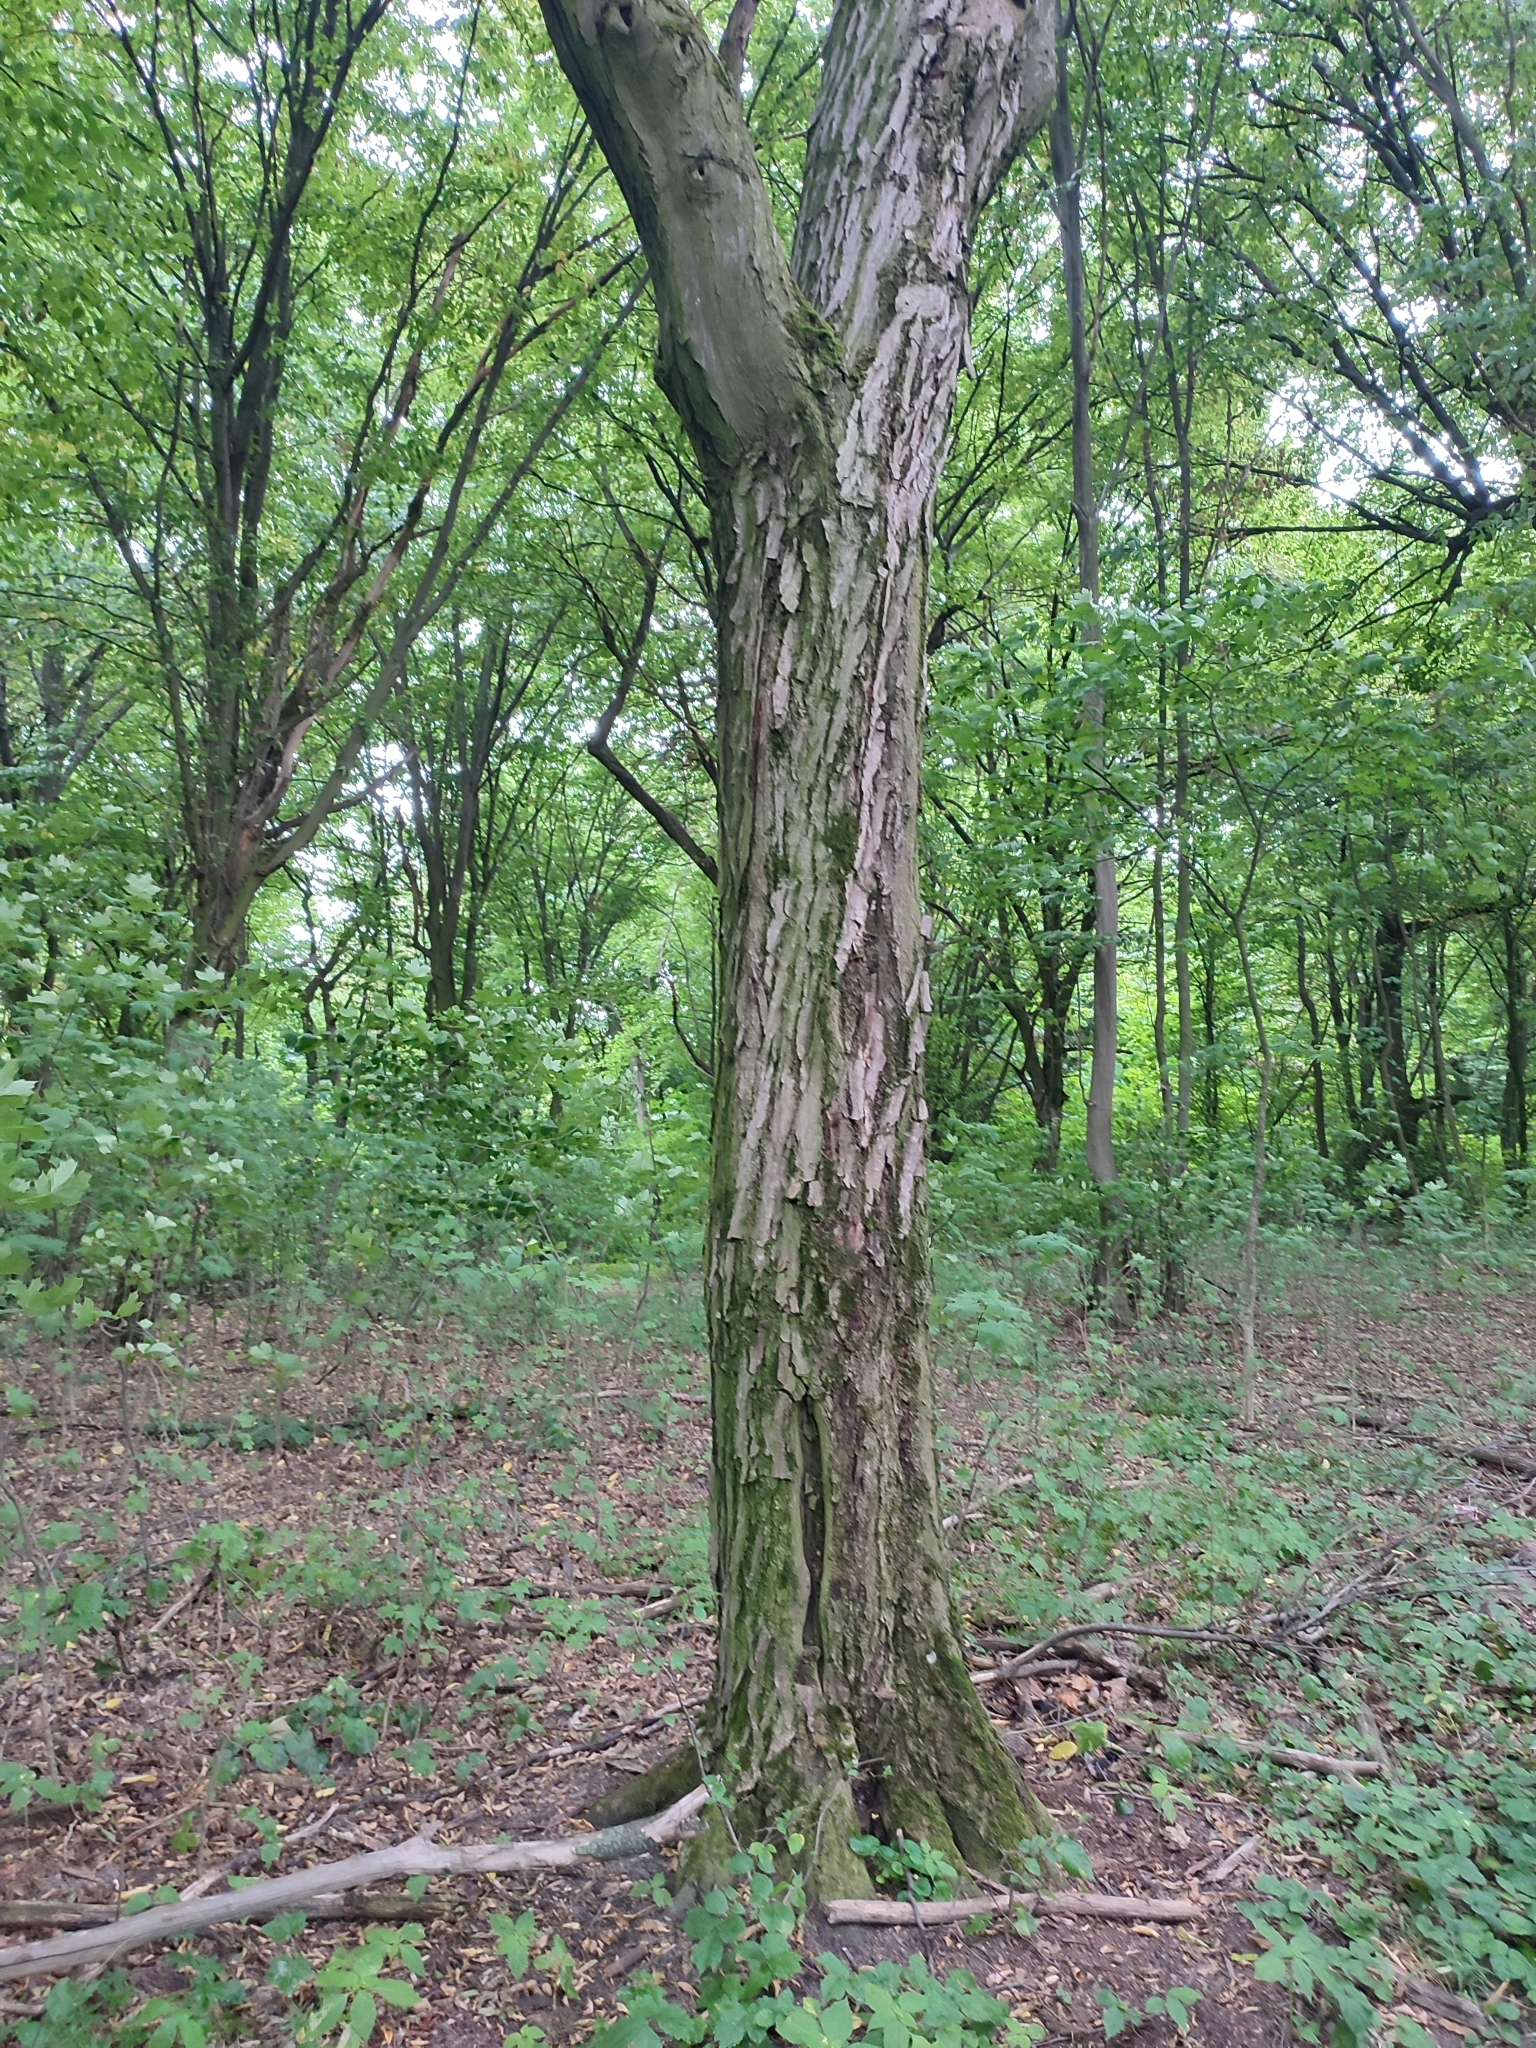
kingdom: Plantae
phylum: Tracheophyta
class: Magnoliopsida
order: Fagales
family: Betulaceae
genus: Carpinus
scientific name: Carpinus betulus
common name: Hornbeam
